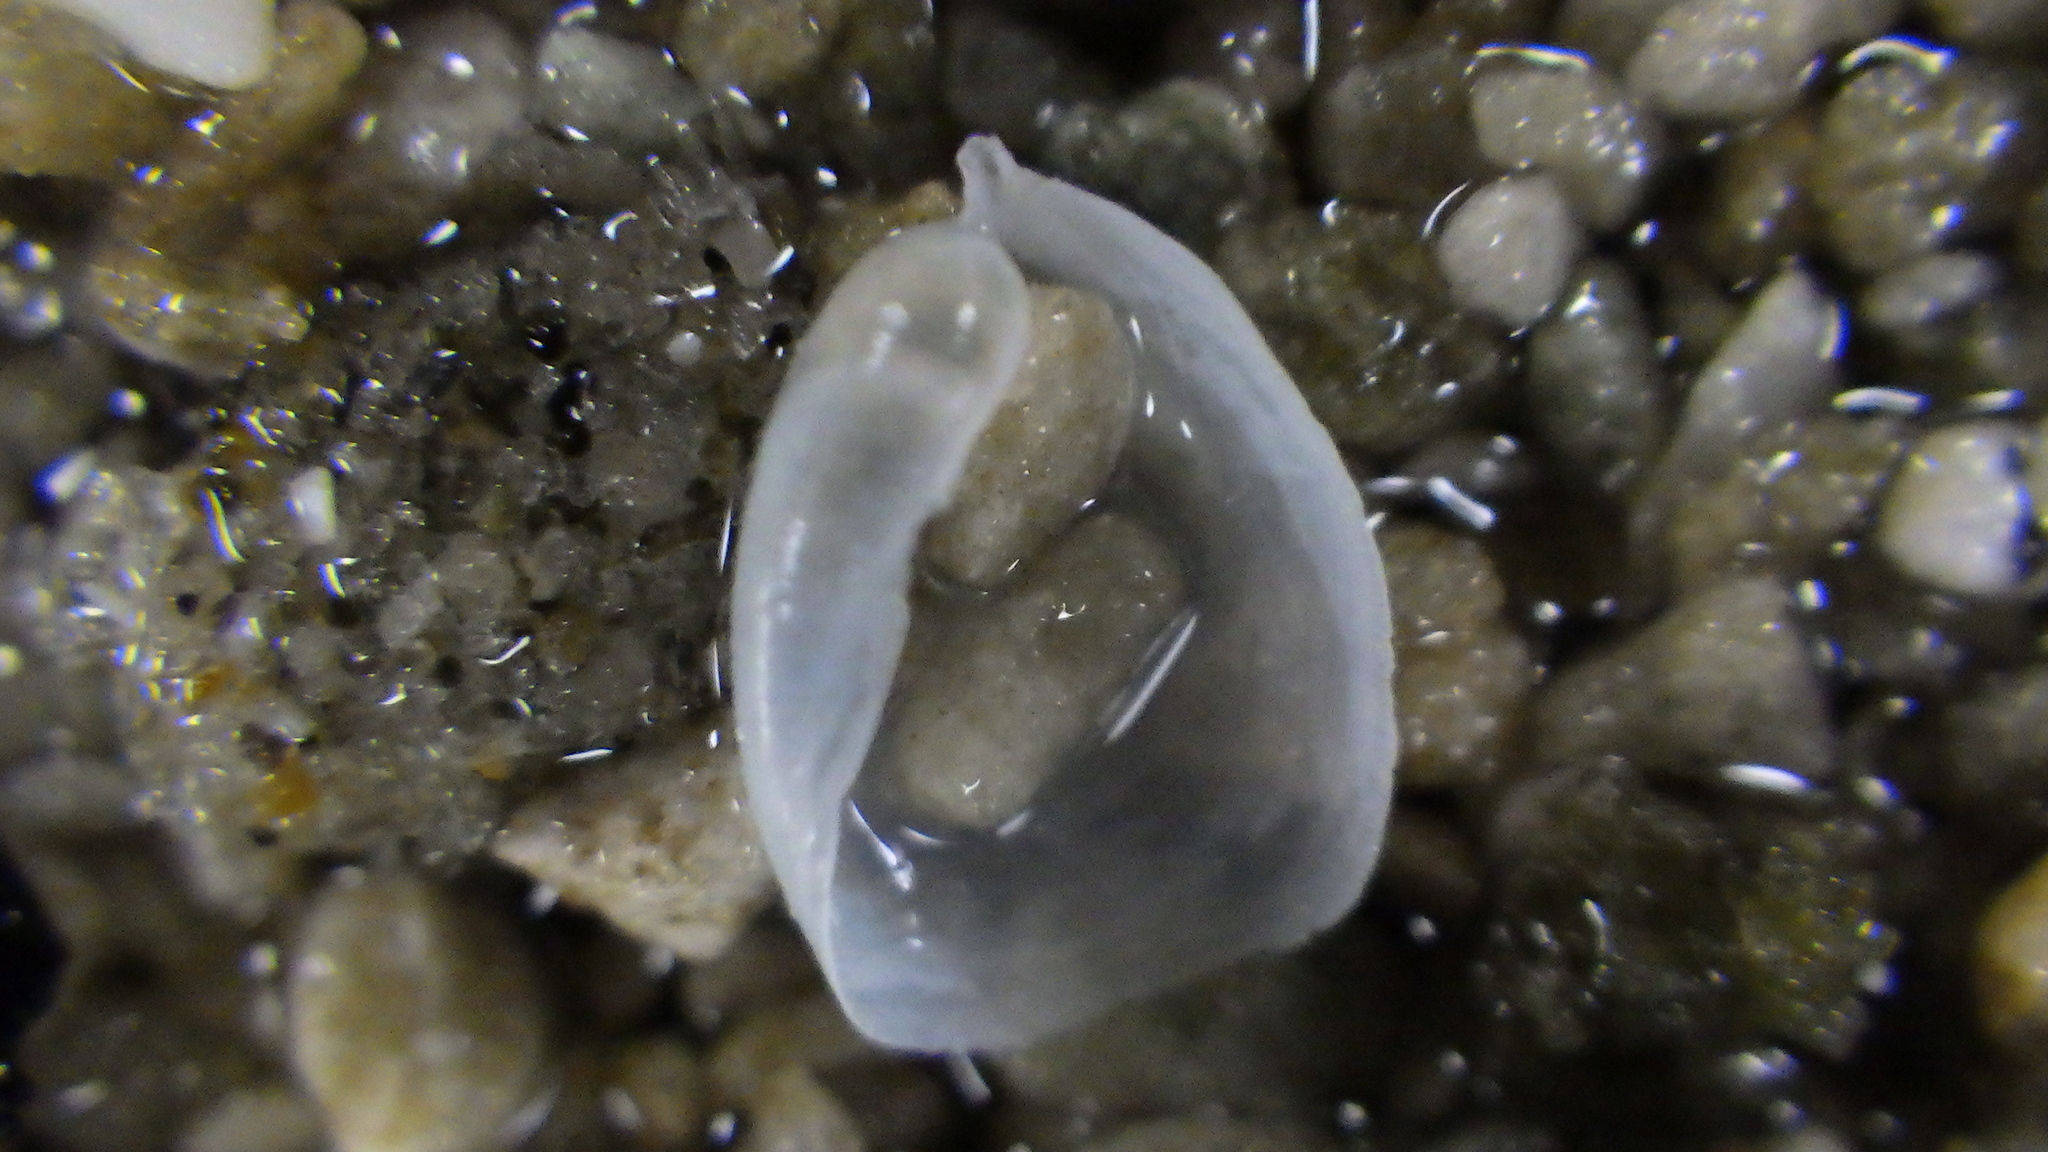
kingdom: Animalia
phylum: Mollusca
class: Gastropoda
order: Cephalaspidea
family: Philinidae
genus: Philine
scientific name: Philine powelli
